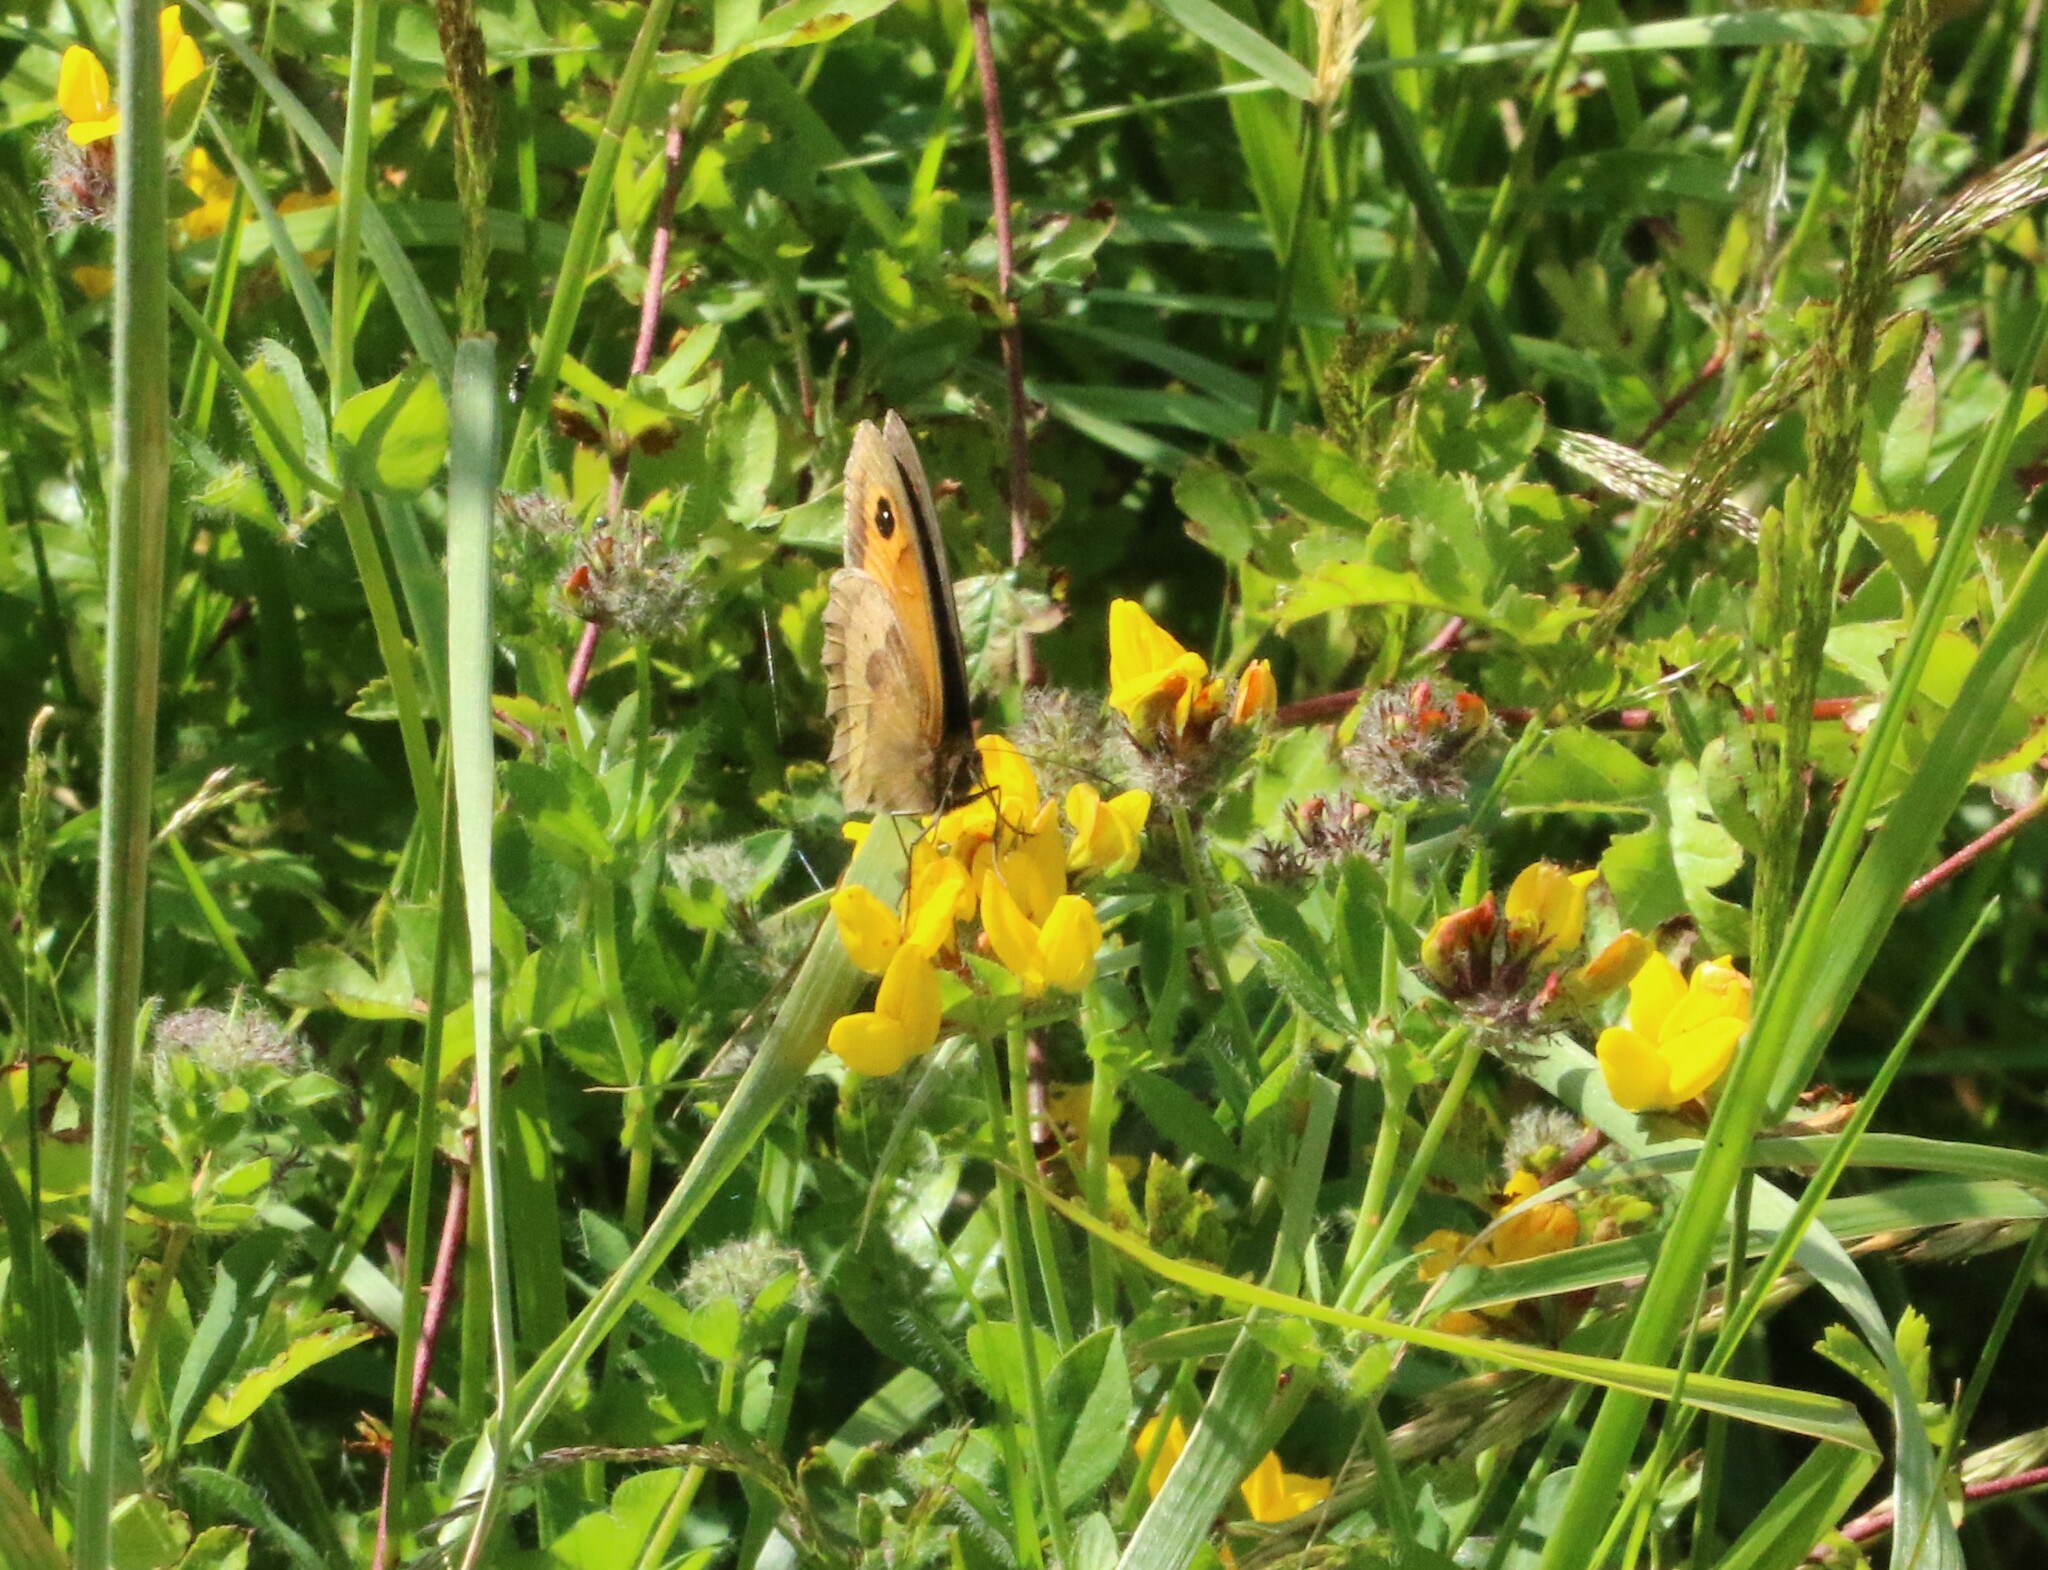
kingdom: Animalia
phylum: Arthropoda
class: Insecta
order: Lepidoptera
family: Nymphalidae
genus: Maniola
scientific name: Maniola jurtina
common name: Meadow brown
